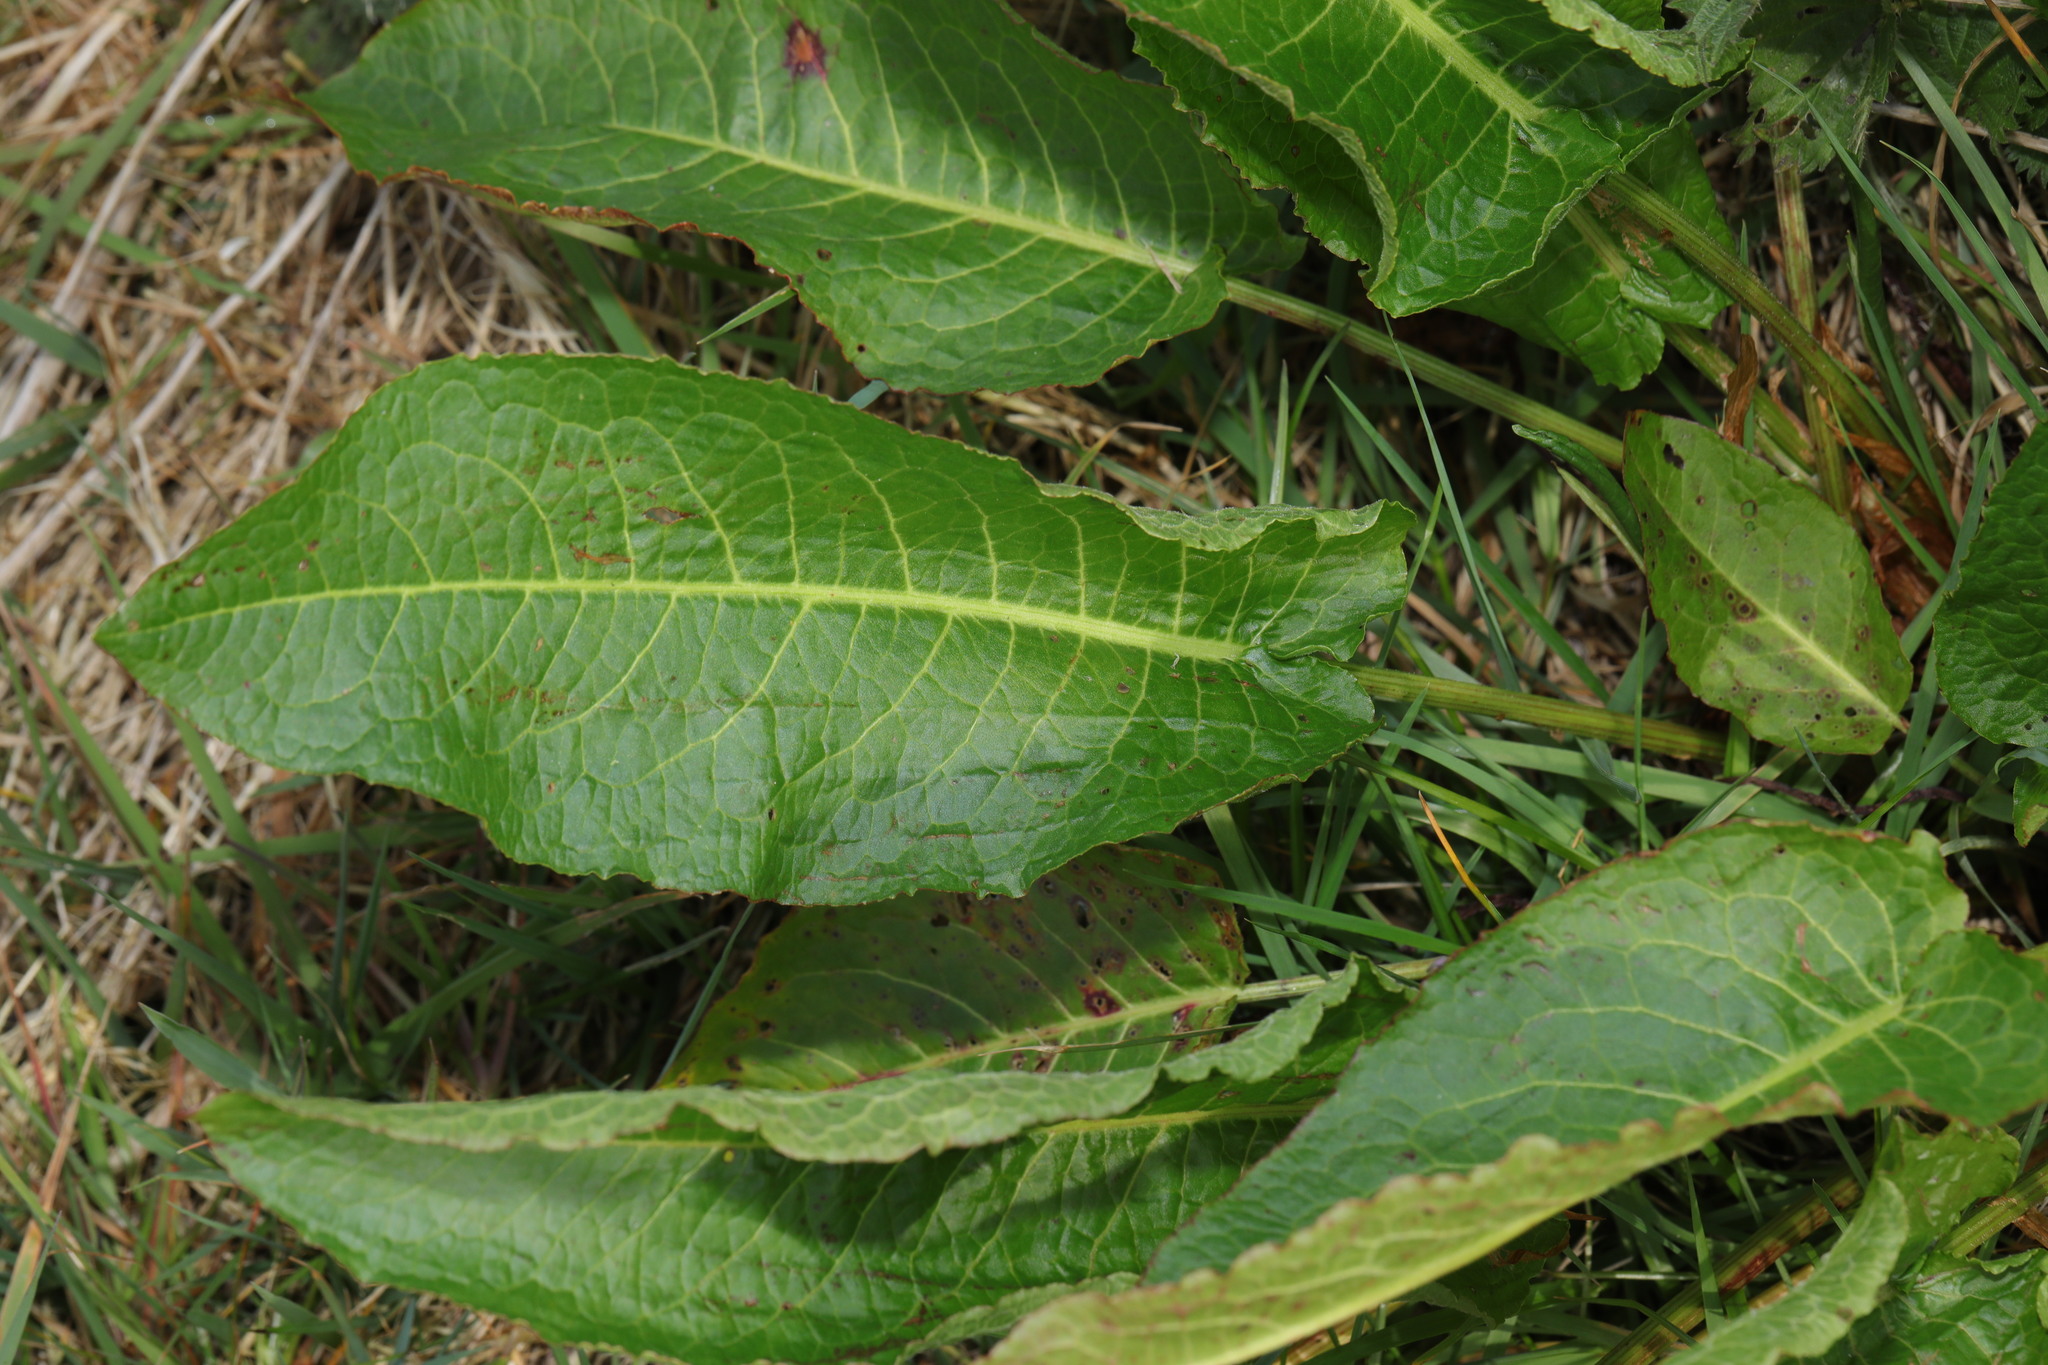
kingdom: Plantae
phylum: Tracheophyta
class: Magnoliopsida
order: Caryophyllales
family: Polygonaceae
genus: Rumex
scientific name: Rumex obtusifolius
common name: Bitter dock
